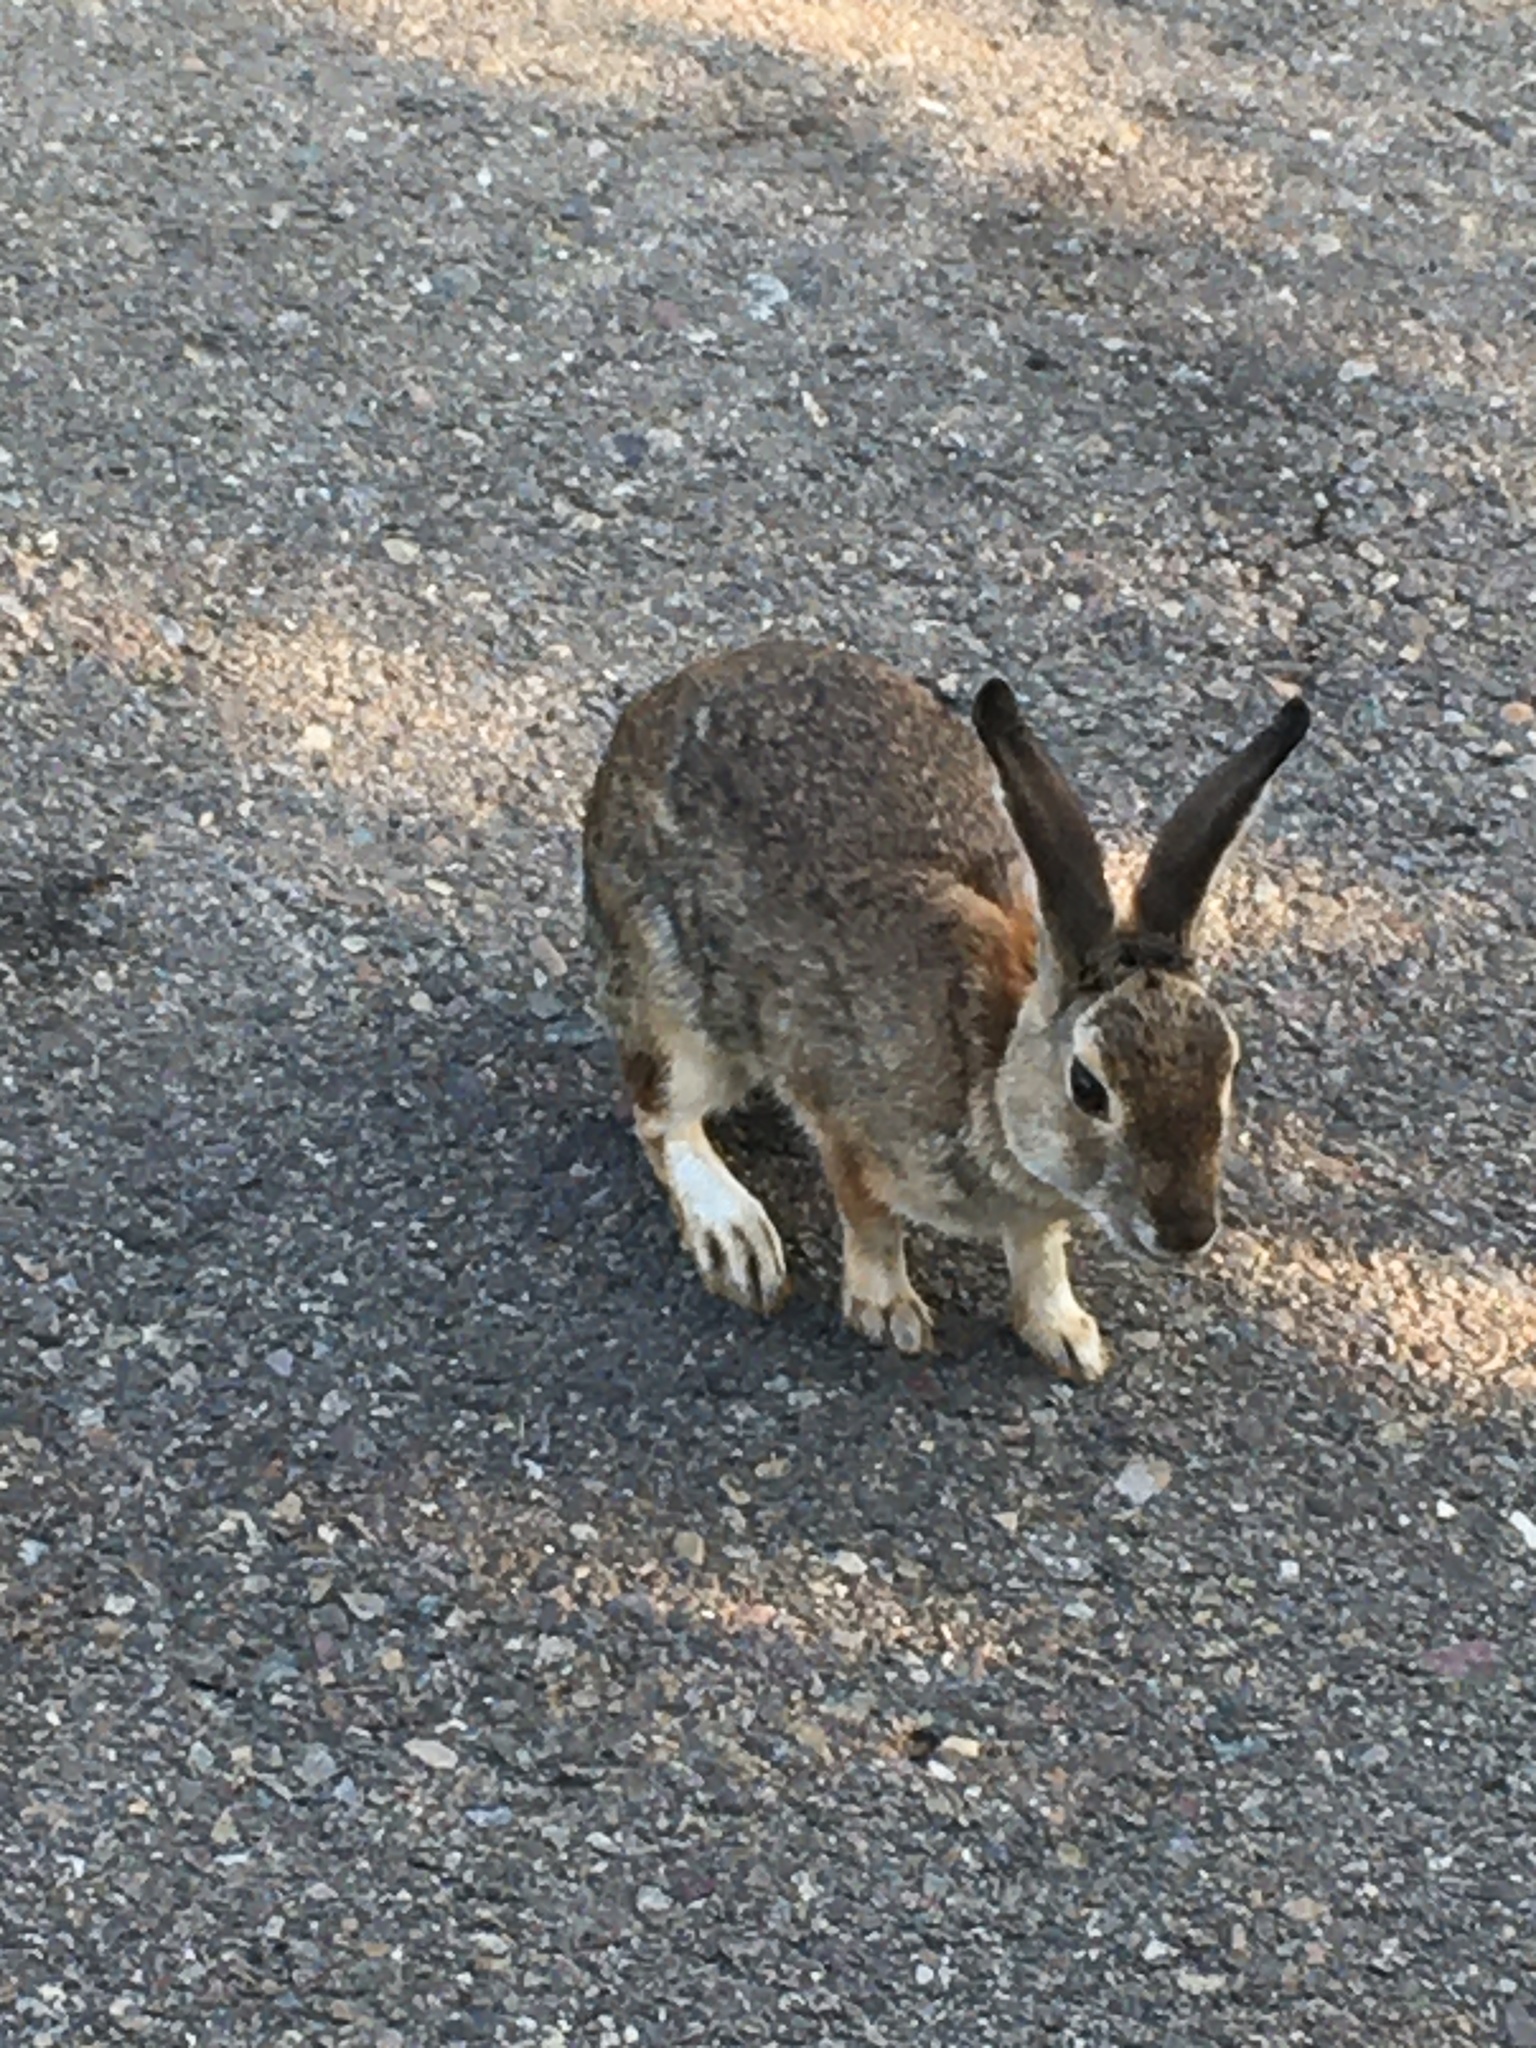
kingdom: Animalia
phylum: Chordata
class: Mammalia
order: Lagomorpha
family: Leporidae
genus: Sylvilagus
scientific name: Sylvilagus audubonii
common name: Desert cottontail
